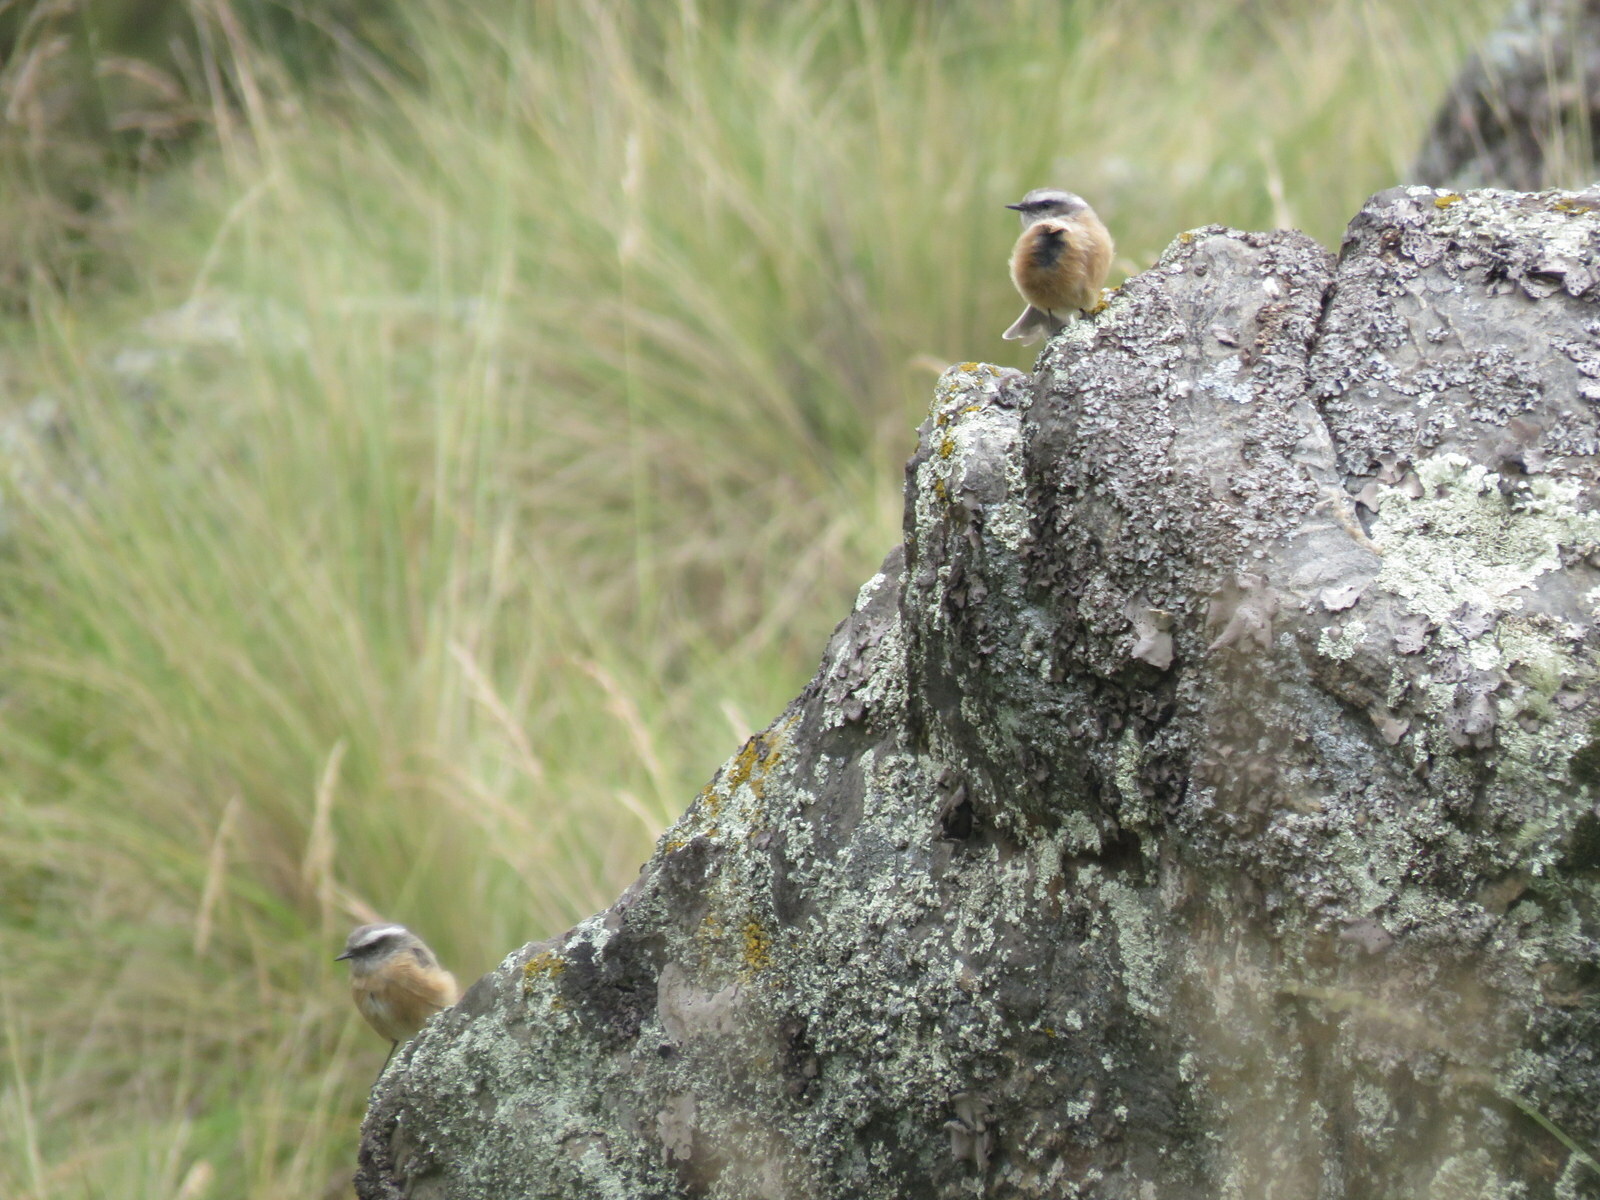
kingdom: Animalia
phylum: Chordata
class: Aves
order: Passeriformes
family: Tyrannidae
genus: Ochthoeca
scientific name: Ochthoeca oenanthoides
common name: D'orbigny's chat-tyrant
